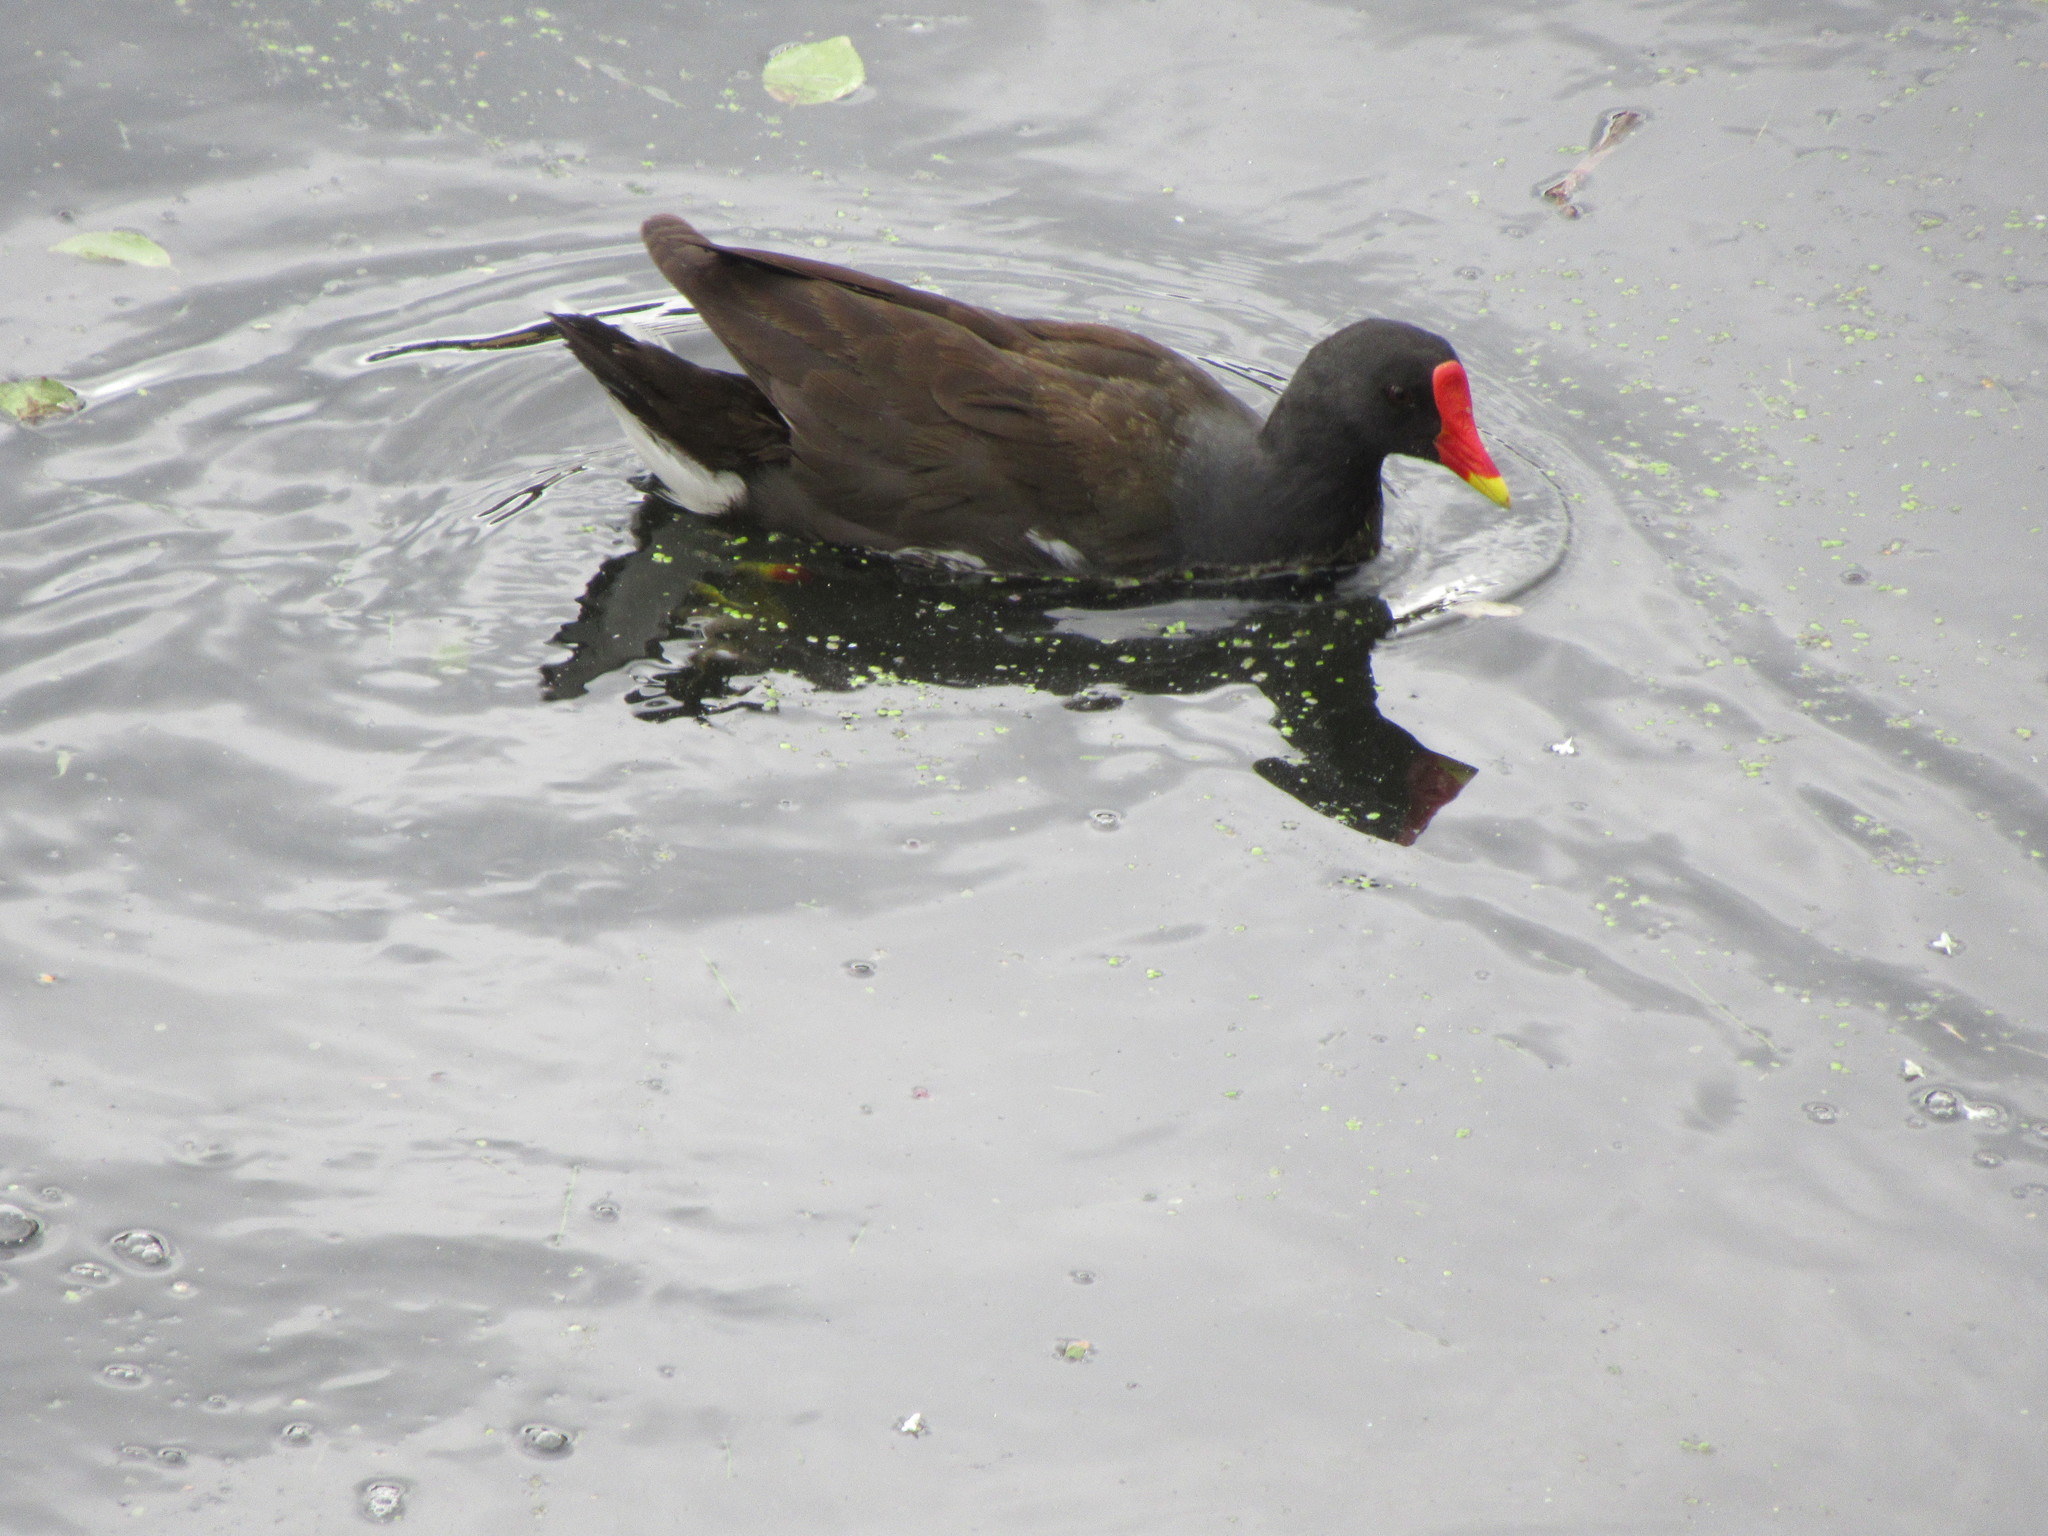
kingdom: Animalia
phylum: Chordata
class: Aves
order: Gruiformes
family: Rallidae
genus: Gallinula
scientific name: Gallinula chloropus
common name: Common moorhen
